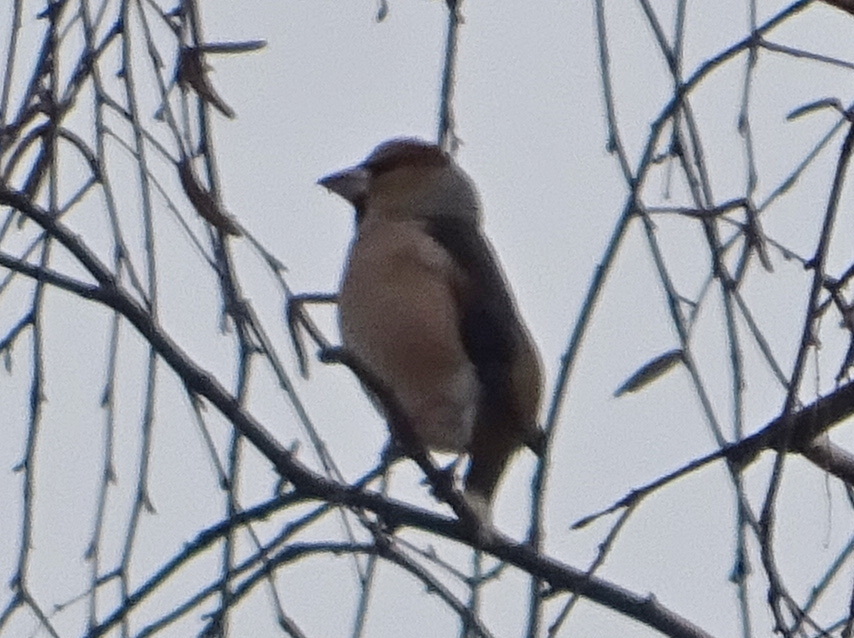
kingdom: Animalia
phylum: Chordata
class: Aves
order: Passeriformes
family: Fringillidae
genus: Coccothraustes
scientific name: Coccothraustes coccothraustes
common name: Hawfinch
